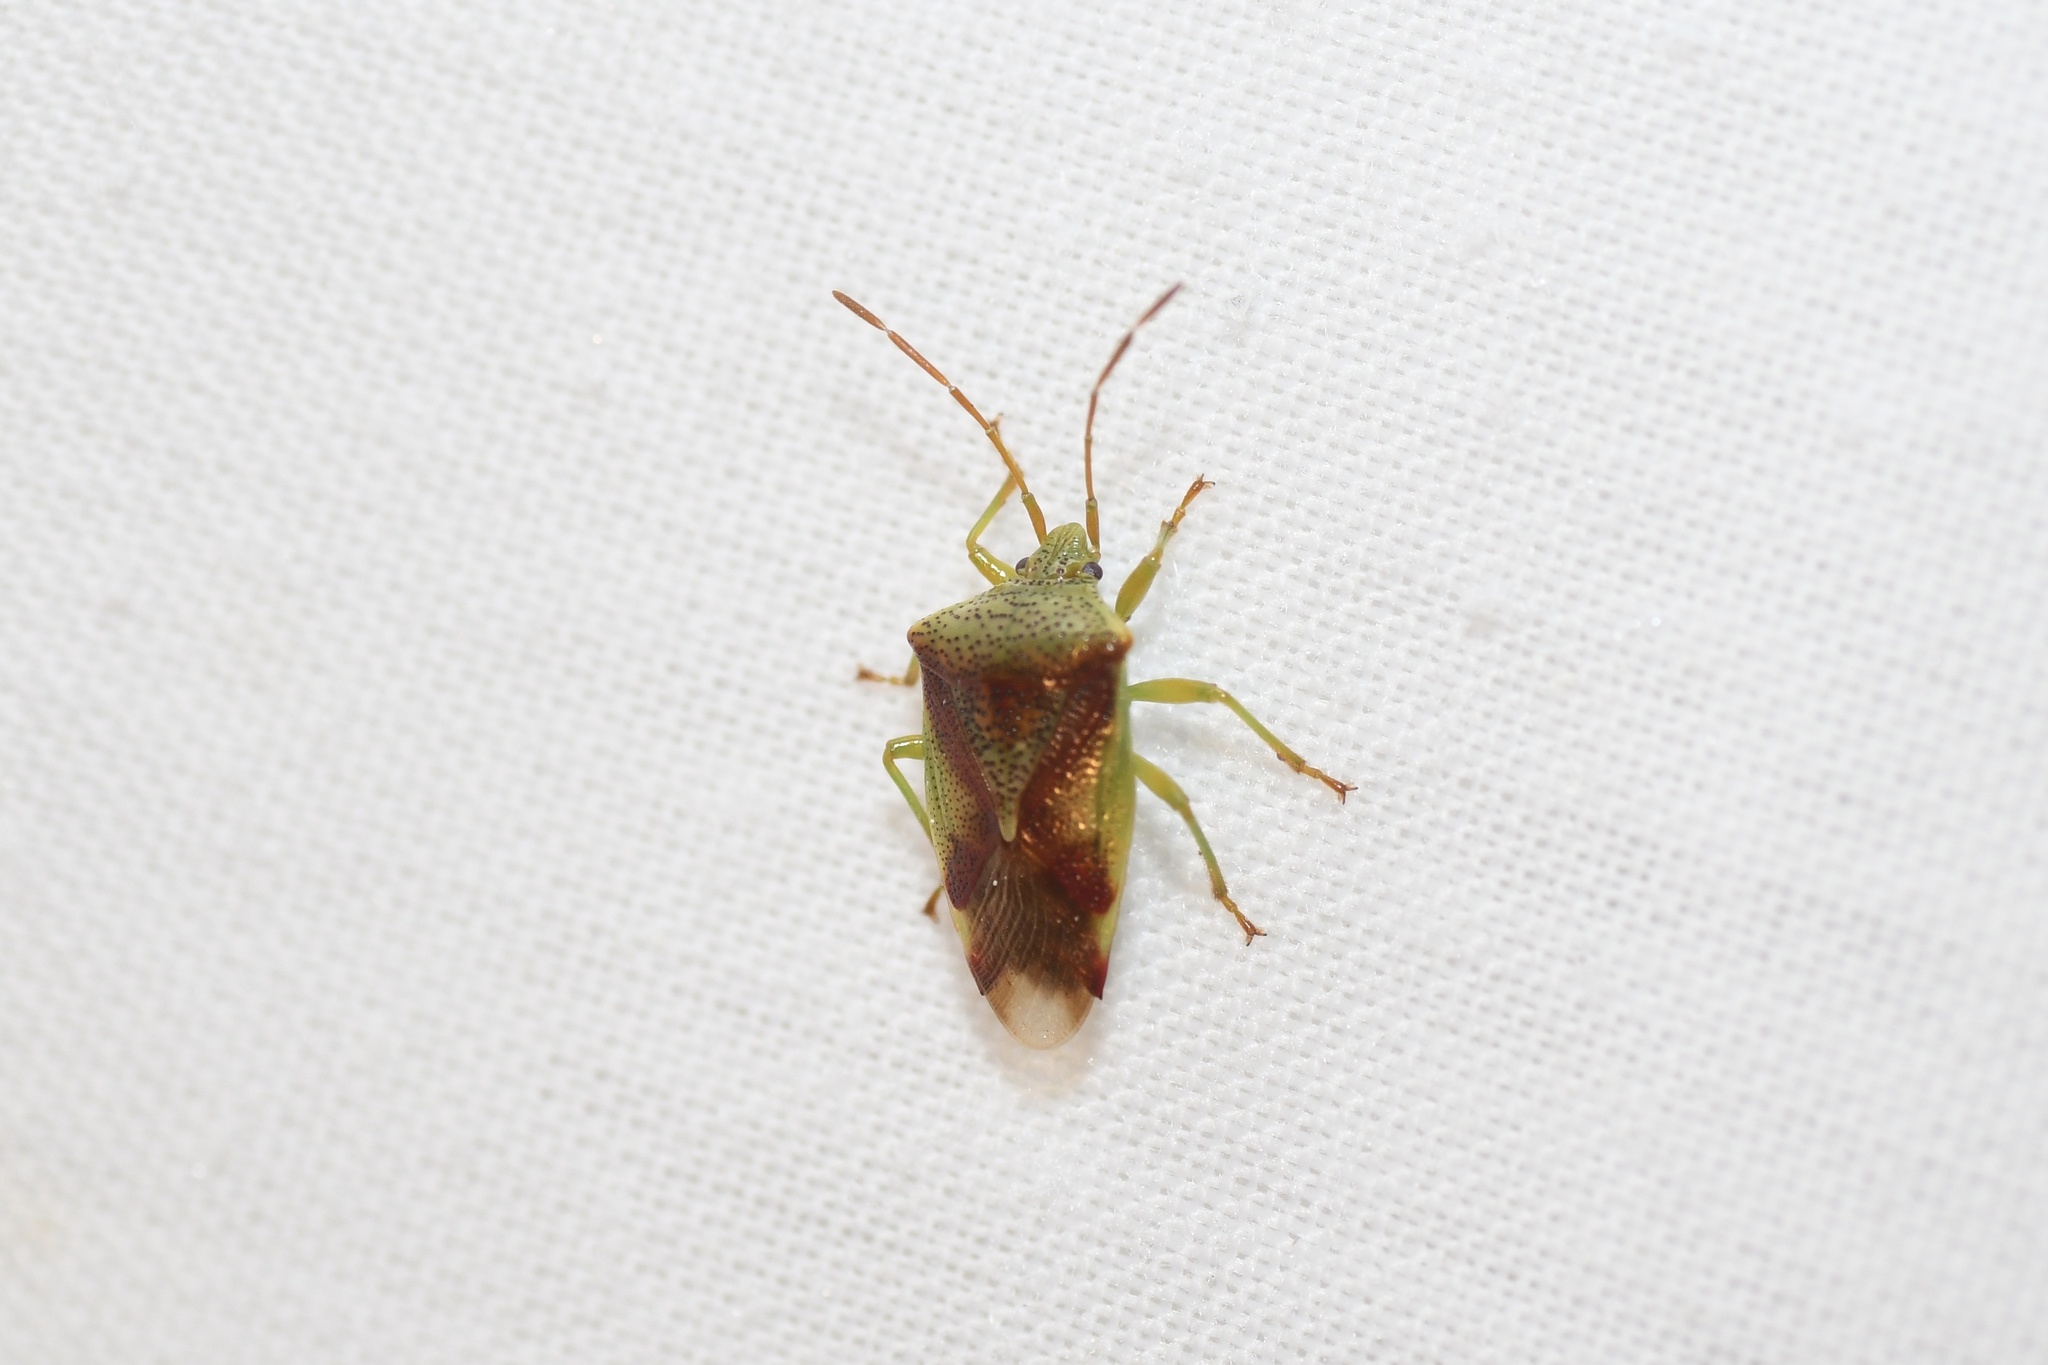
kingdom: Animalia
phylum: Arthropoda
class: Insecta
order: Hemiptera
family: Acanthosomatidae
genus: Elasmostethus
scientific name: Elasmostethus cruciatus
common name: Red-cross shield bug
